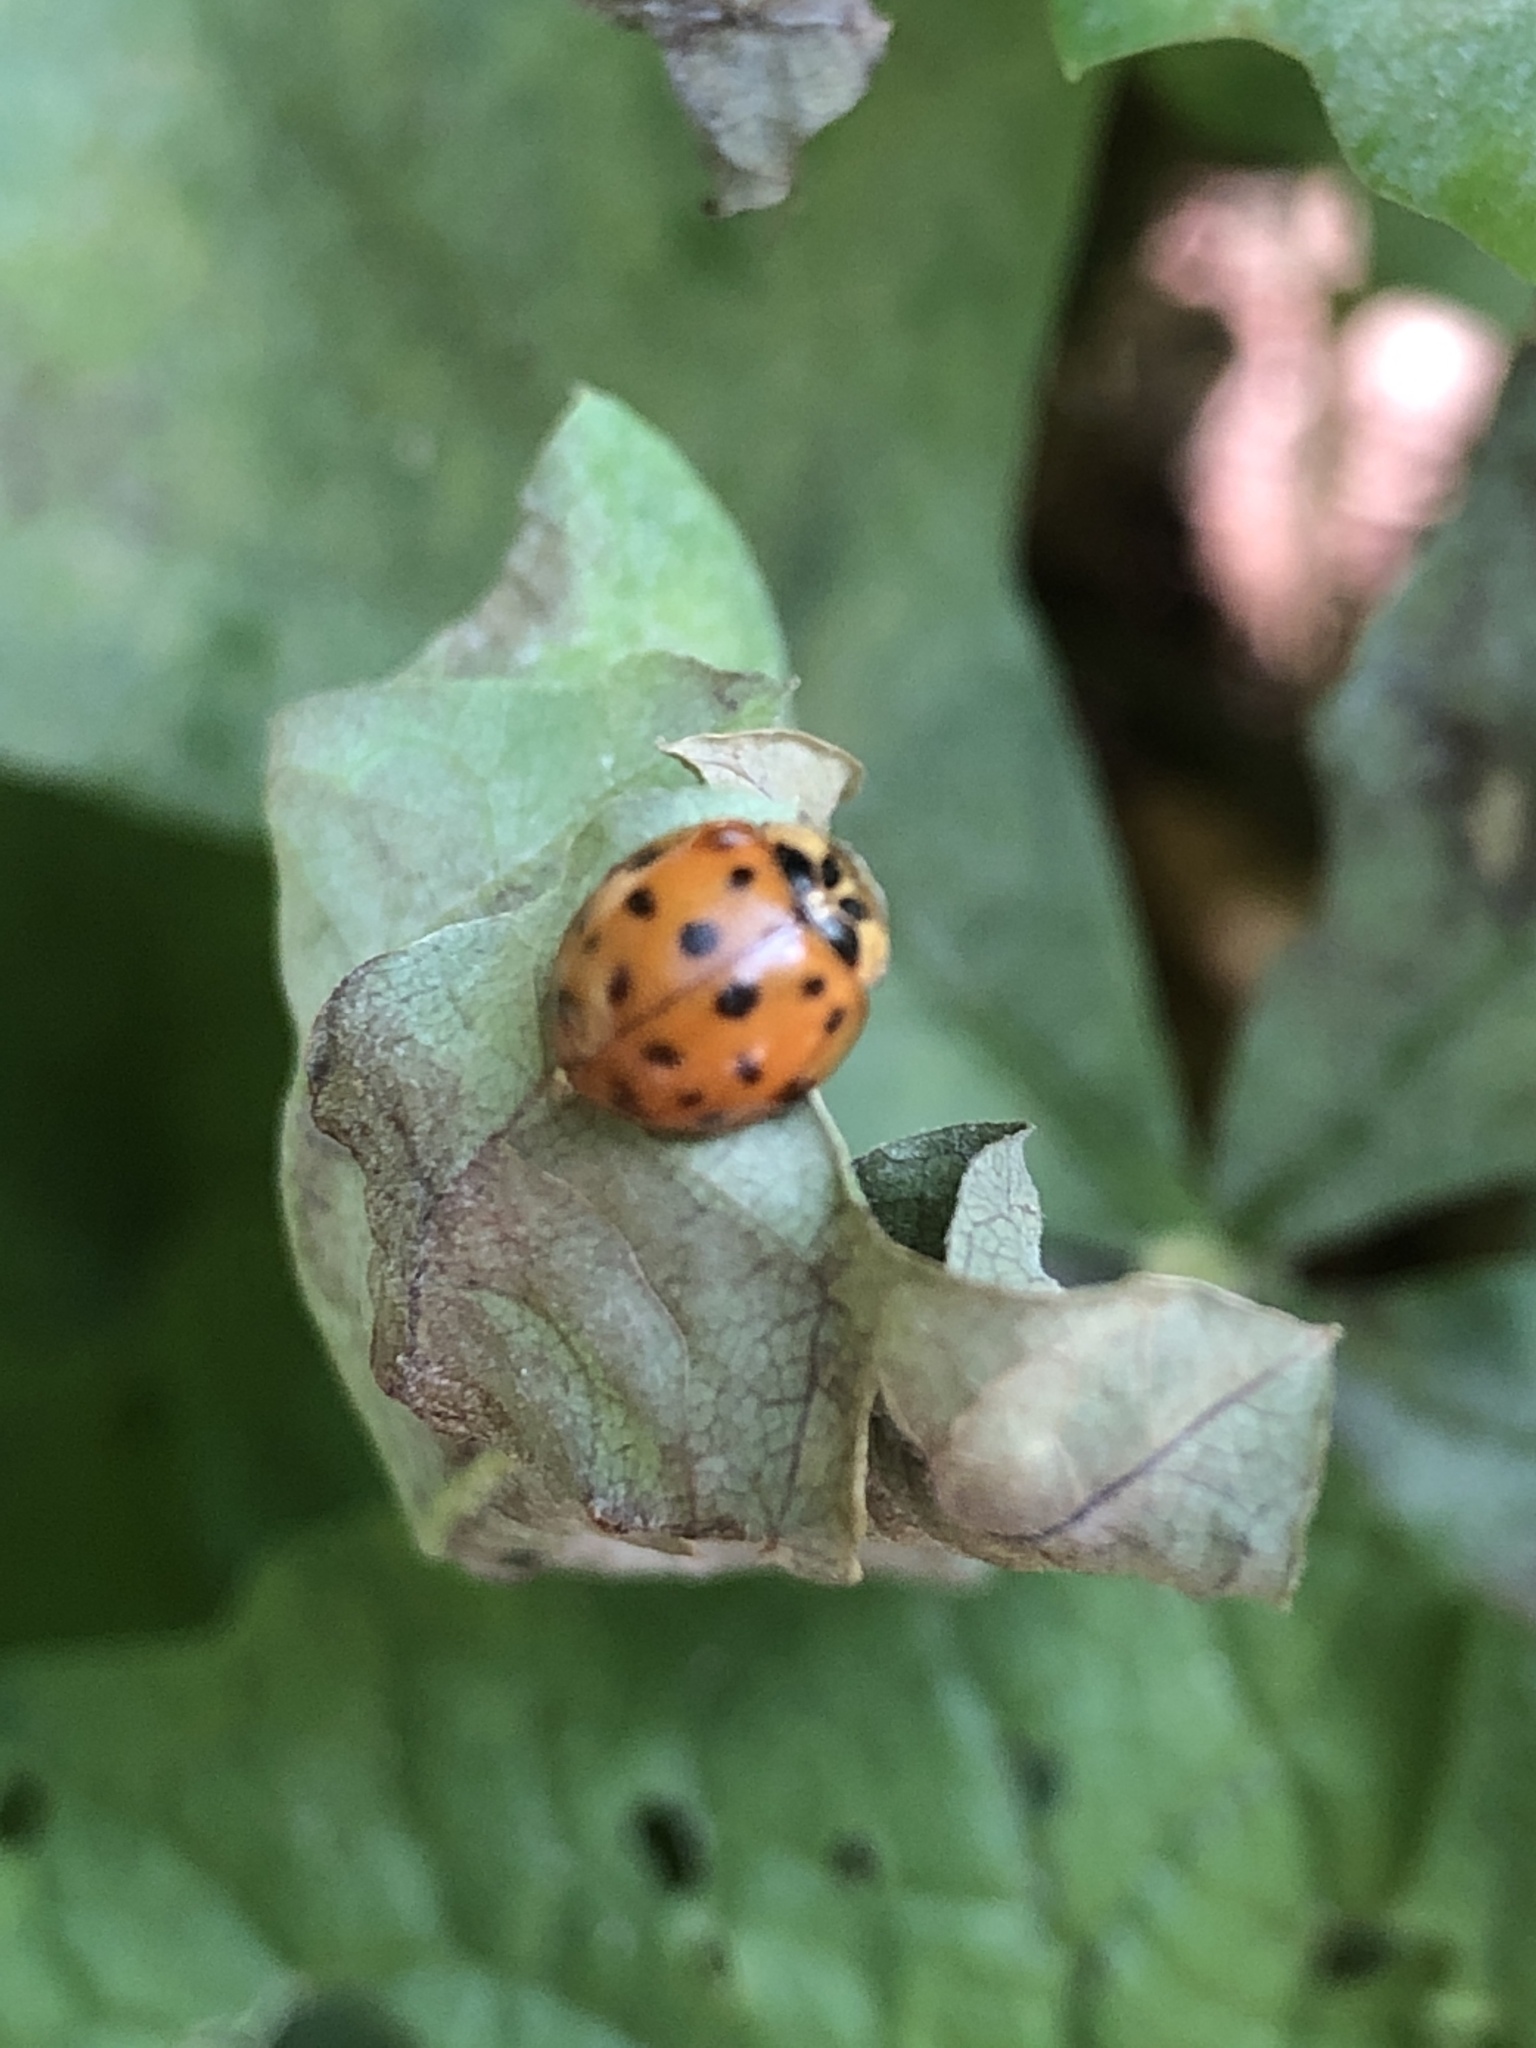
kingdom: Animalia
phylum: Arthropoda
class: Insecta
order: Coleoptera
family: Coccinellidae
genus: Harmonia
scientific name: Harmonia axyridis
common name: Harlequin ladybird
